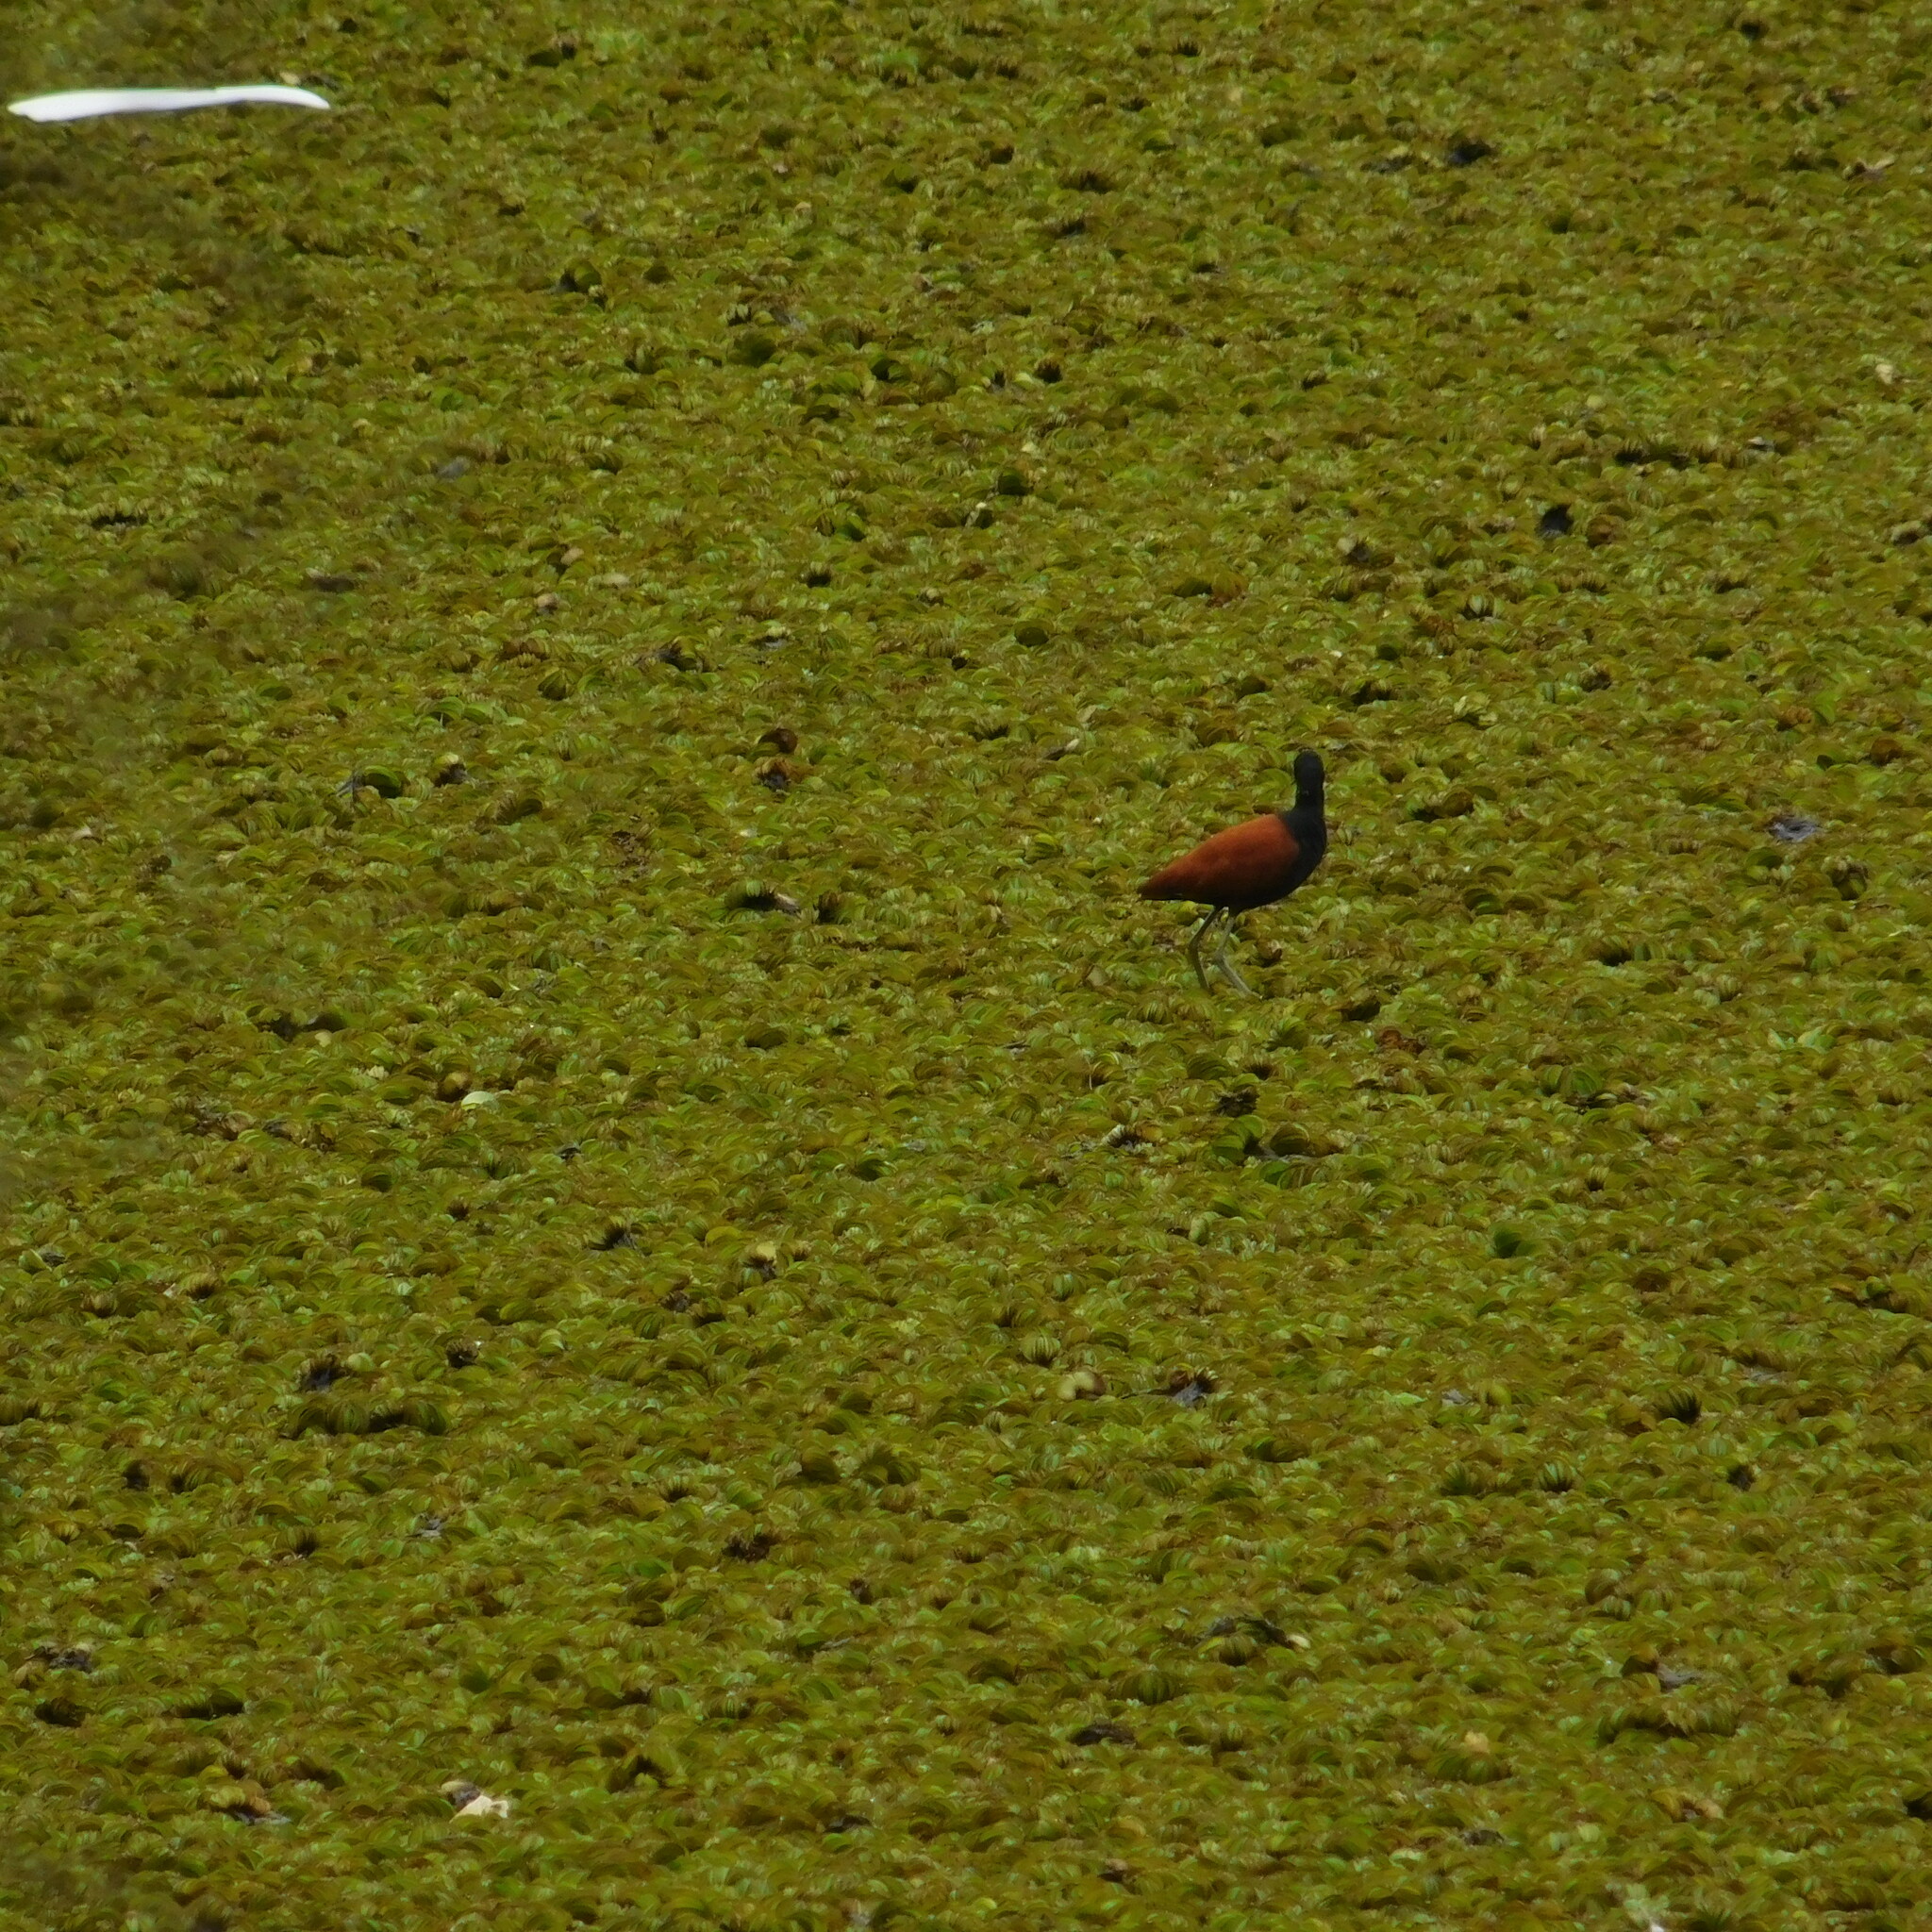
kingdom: Animalia
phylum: Chordata
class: Aves
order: Charadriiformes
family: Jacanidae
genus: Jacana
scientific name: Jacana jacana
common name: Wattled jacana
